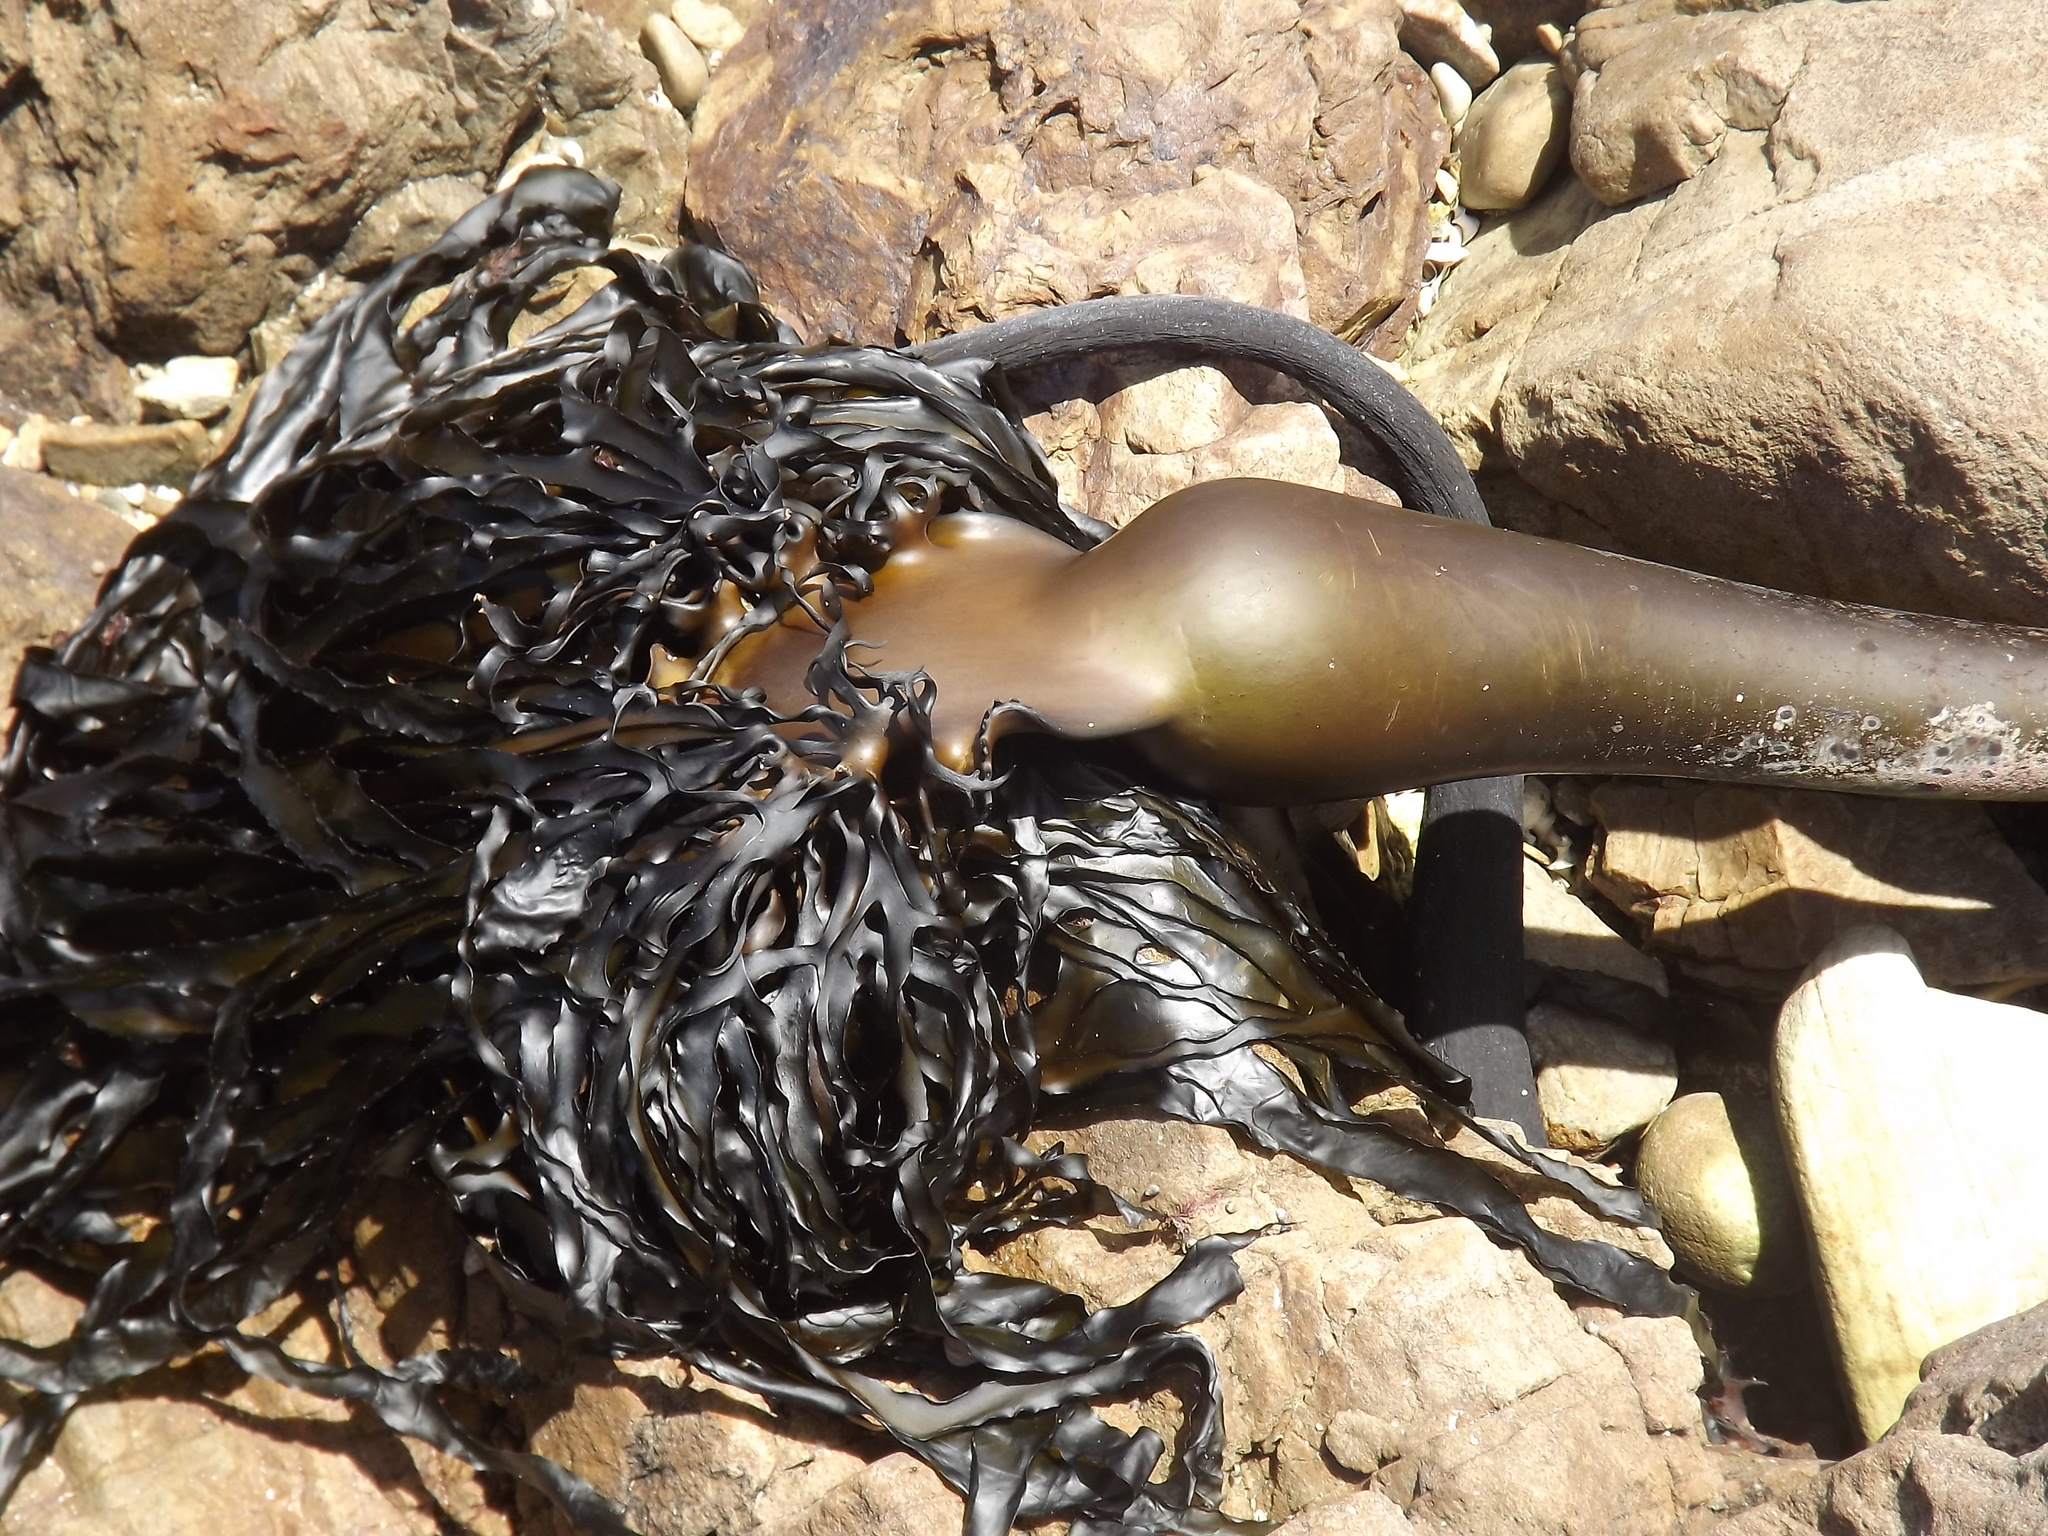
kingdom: Chromista
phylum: Ochrophyta
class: Phaeophyceae
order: Laminariales
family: Lessoniaceae
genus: Ecklonia
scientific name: Ecklonia
